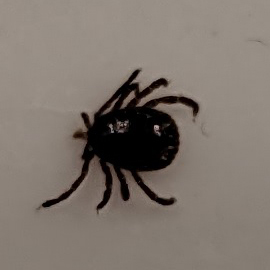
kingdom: Animalia
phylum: Arthropoda
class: Arachnida
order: Ixodida
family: Ixodidae
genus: Amblyomma
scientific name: Amblyomma americanum
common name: Lone star tick
